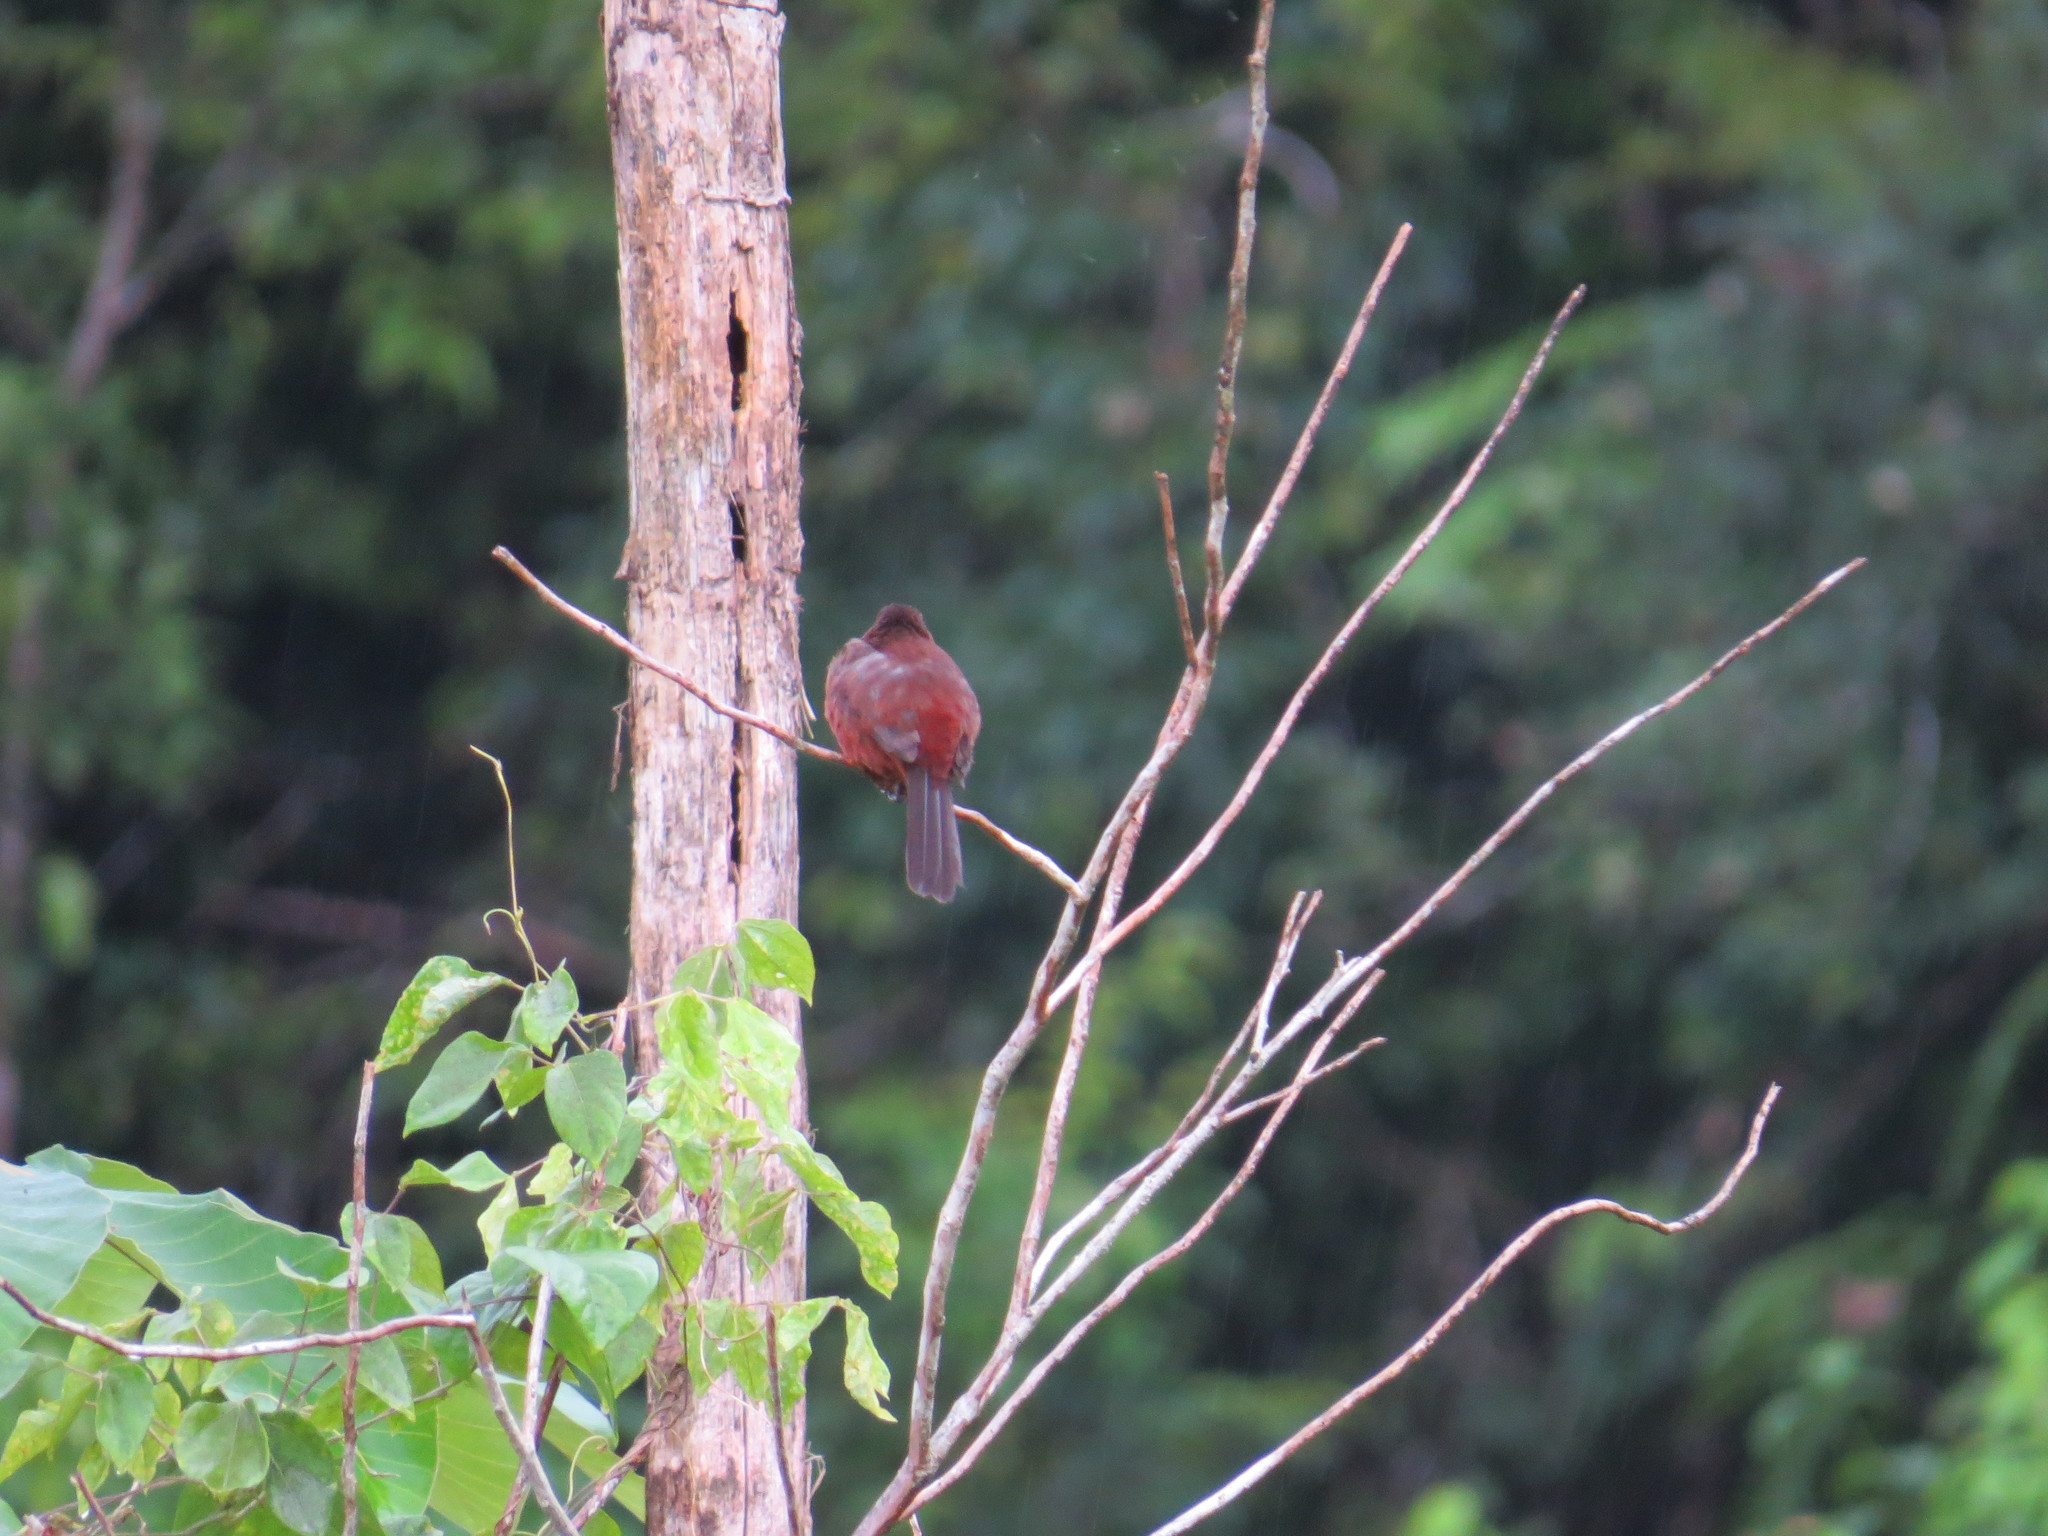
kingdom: Animalia
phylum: Chordata
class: Aves
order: Passeriformes
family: Thraupidae
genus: Ramphocelus
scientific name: Ramphocelus carbo
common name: Silver-beaked tanager
